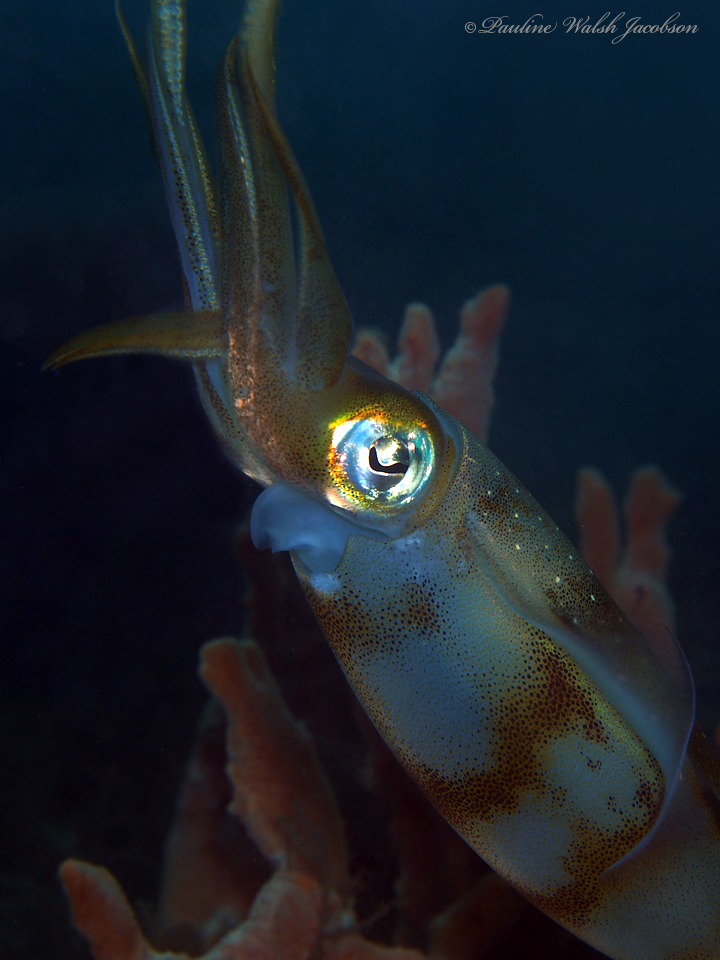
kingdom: Animalia
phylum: Mollusca
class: Cephalopoda
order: Myopsida
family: Loliginidae
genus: Sepioteuthis
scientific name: Sepioteuthis sepioidea
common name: Caribbean reef squid
